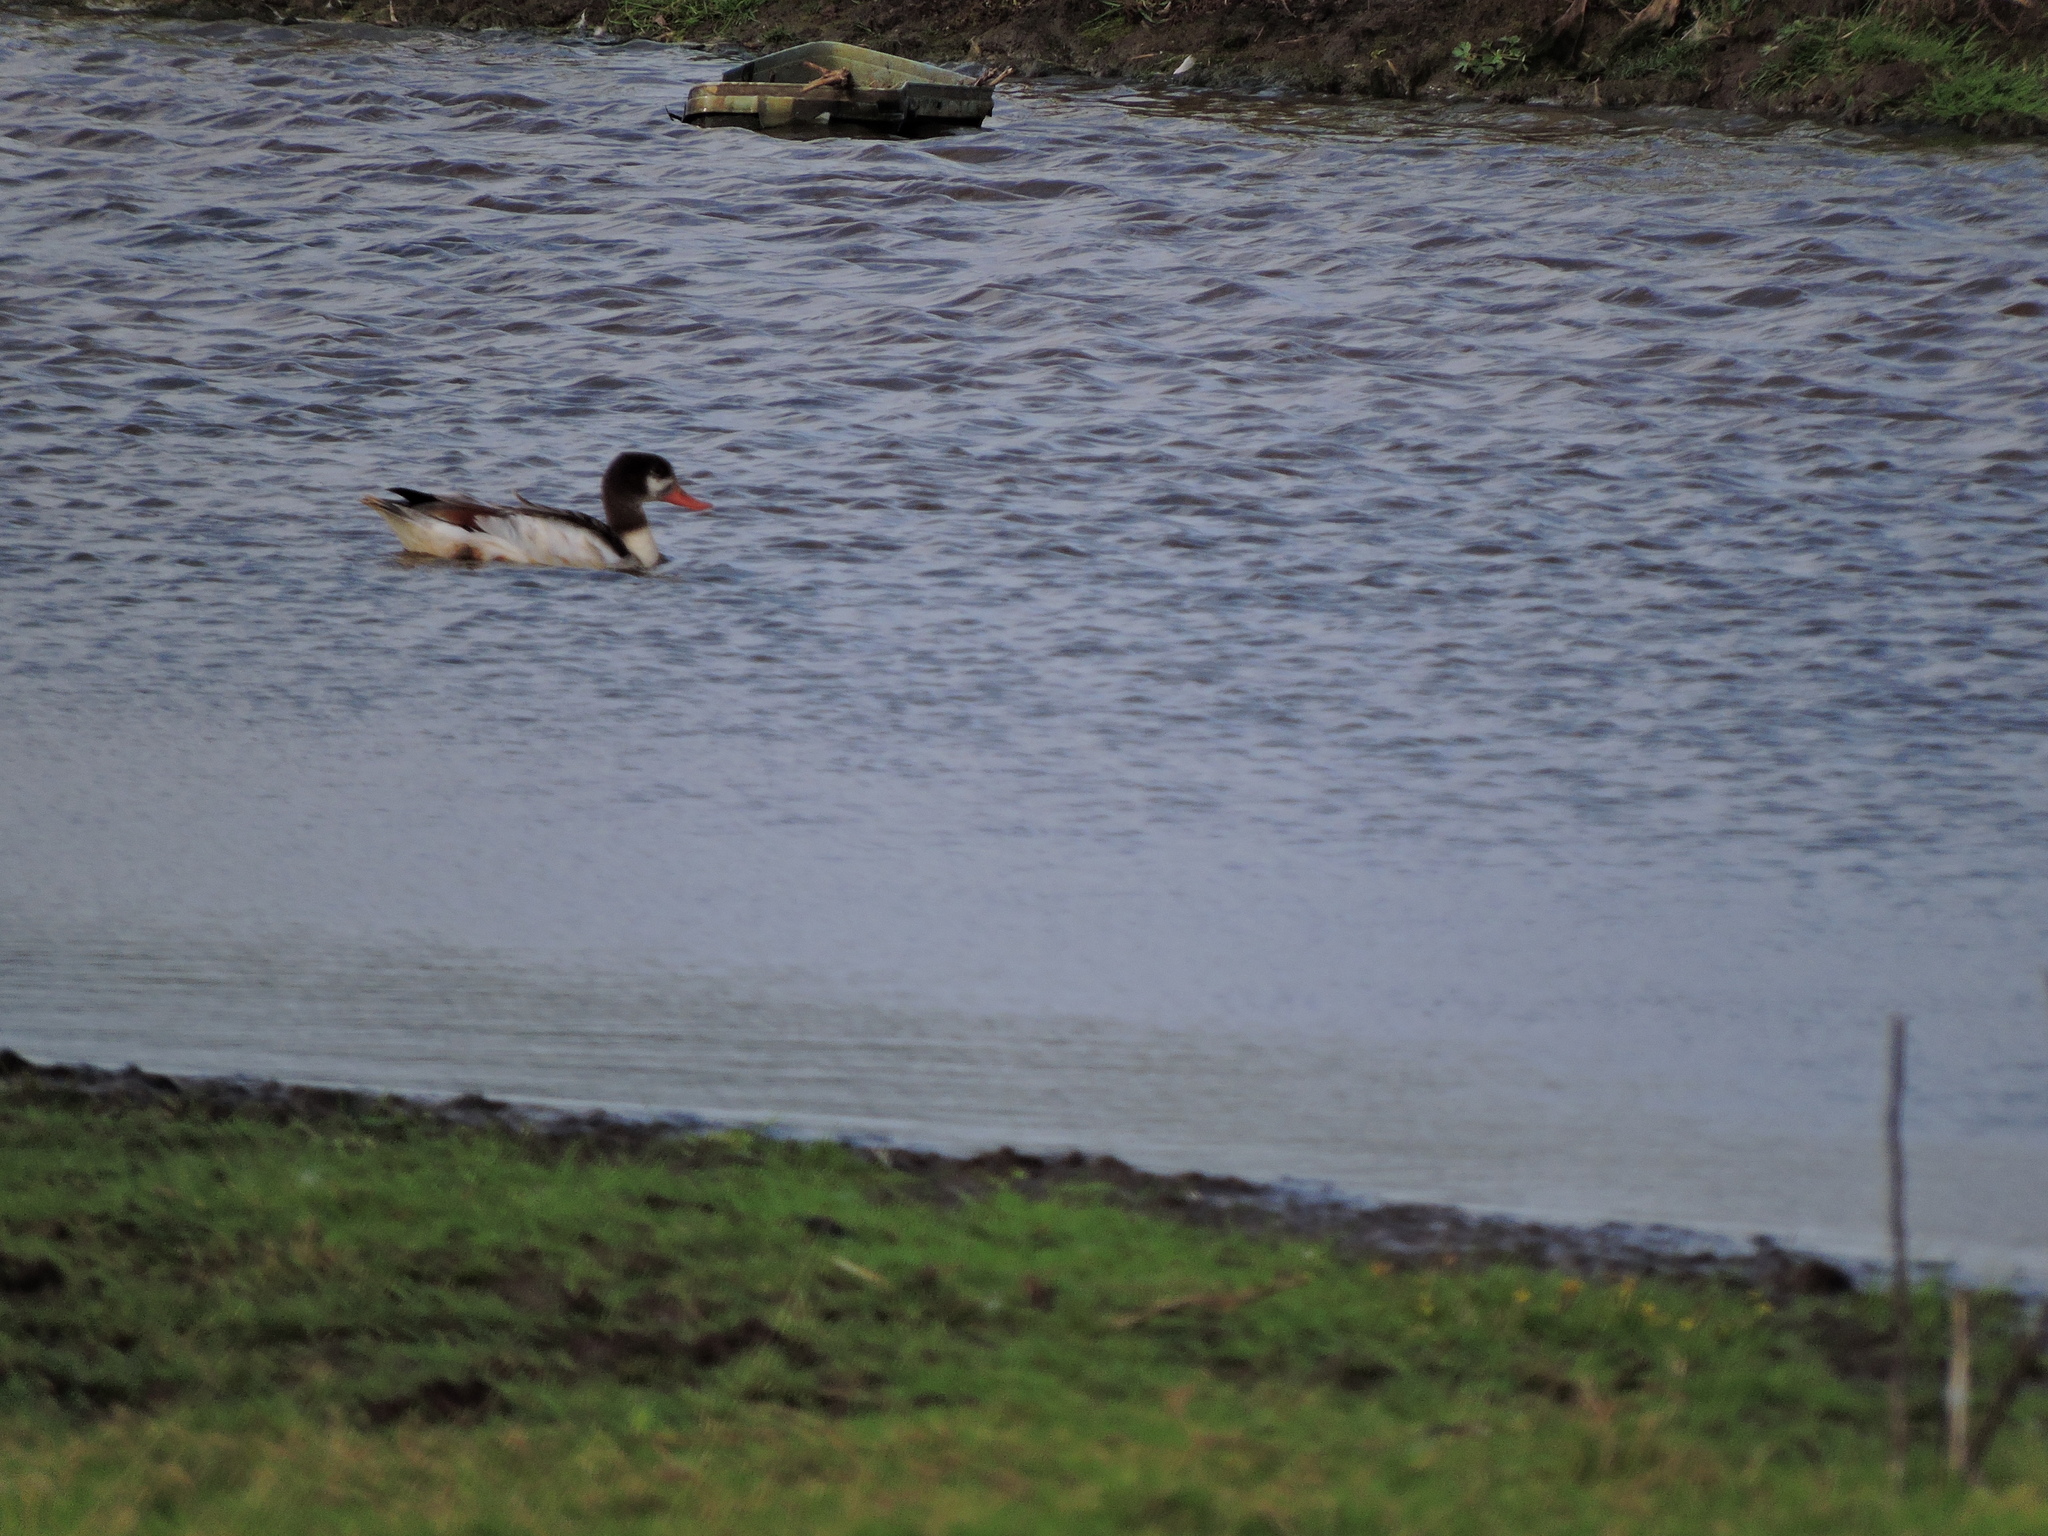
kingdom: Animalia
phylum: Chordata
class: Aves
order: Anseriformes
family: Anatidae
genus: Tadorna
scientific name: Tadorna tadorna
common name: Common shelduck
